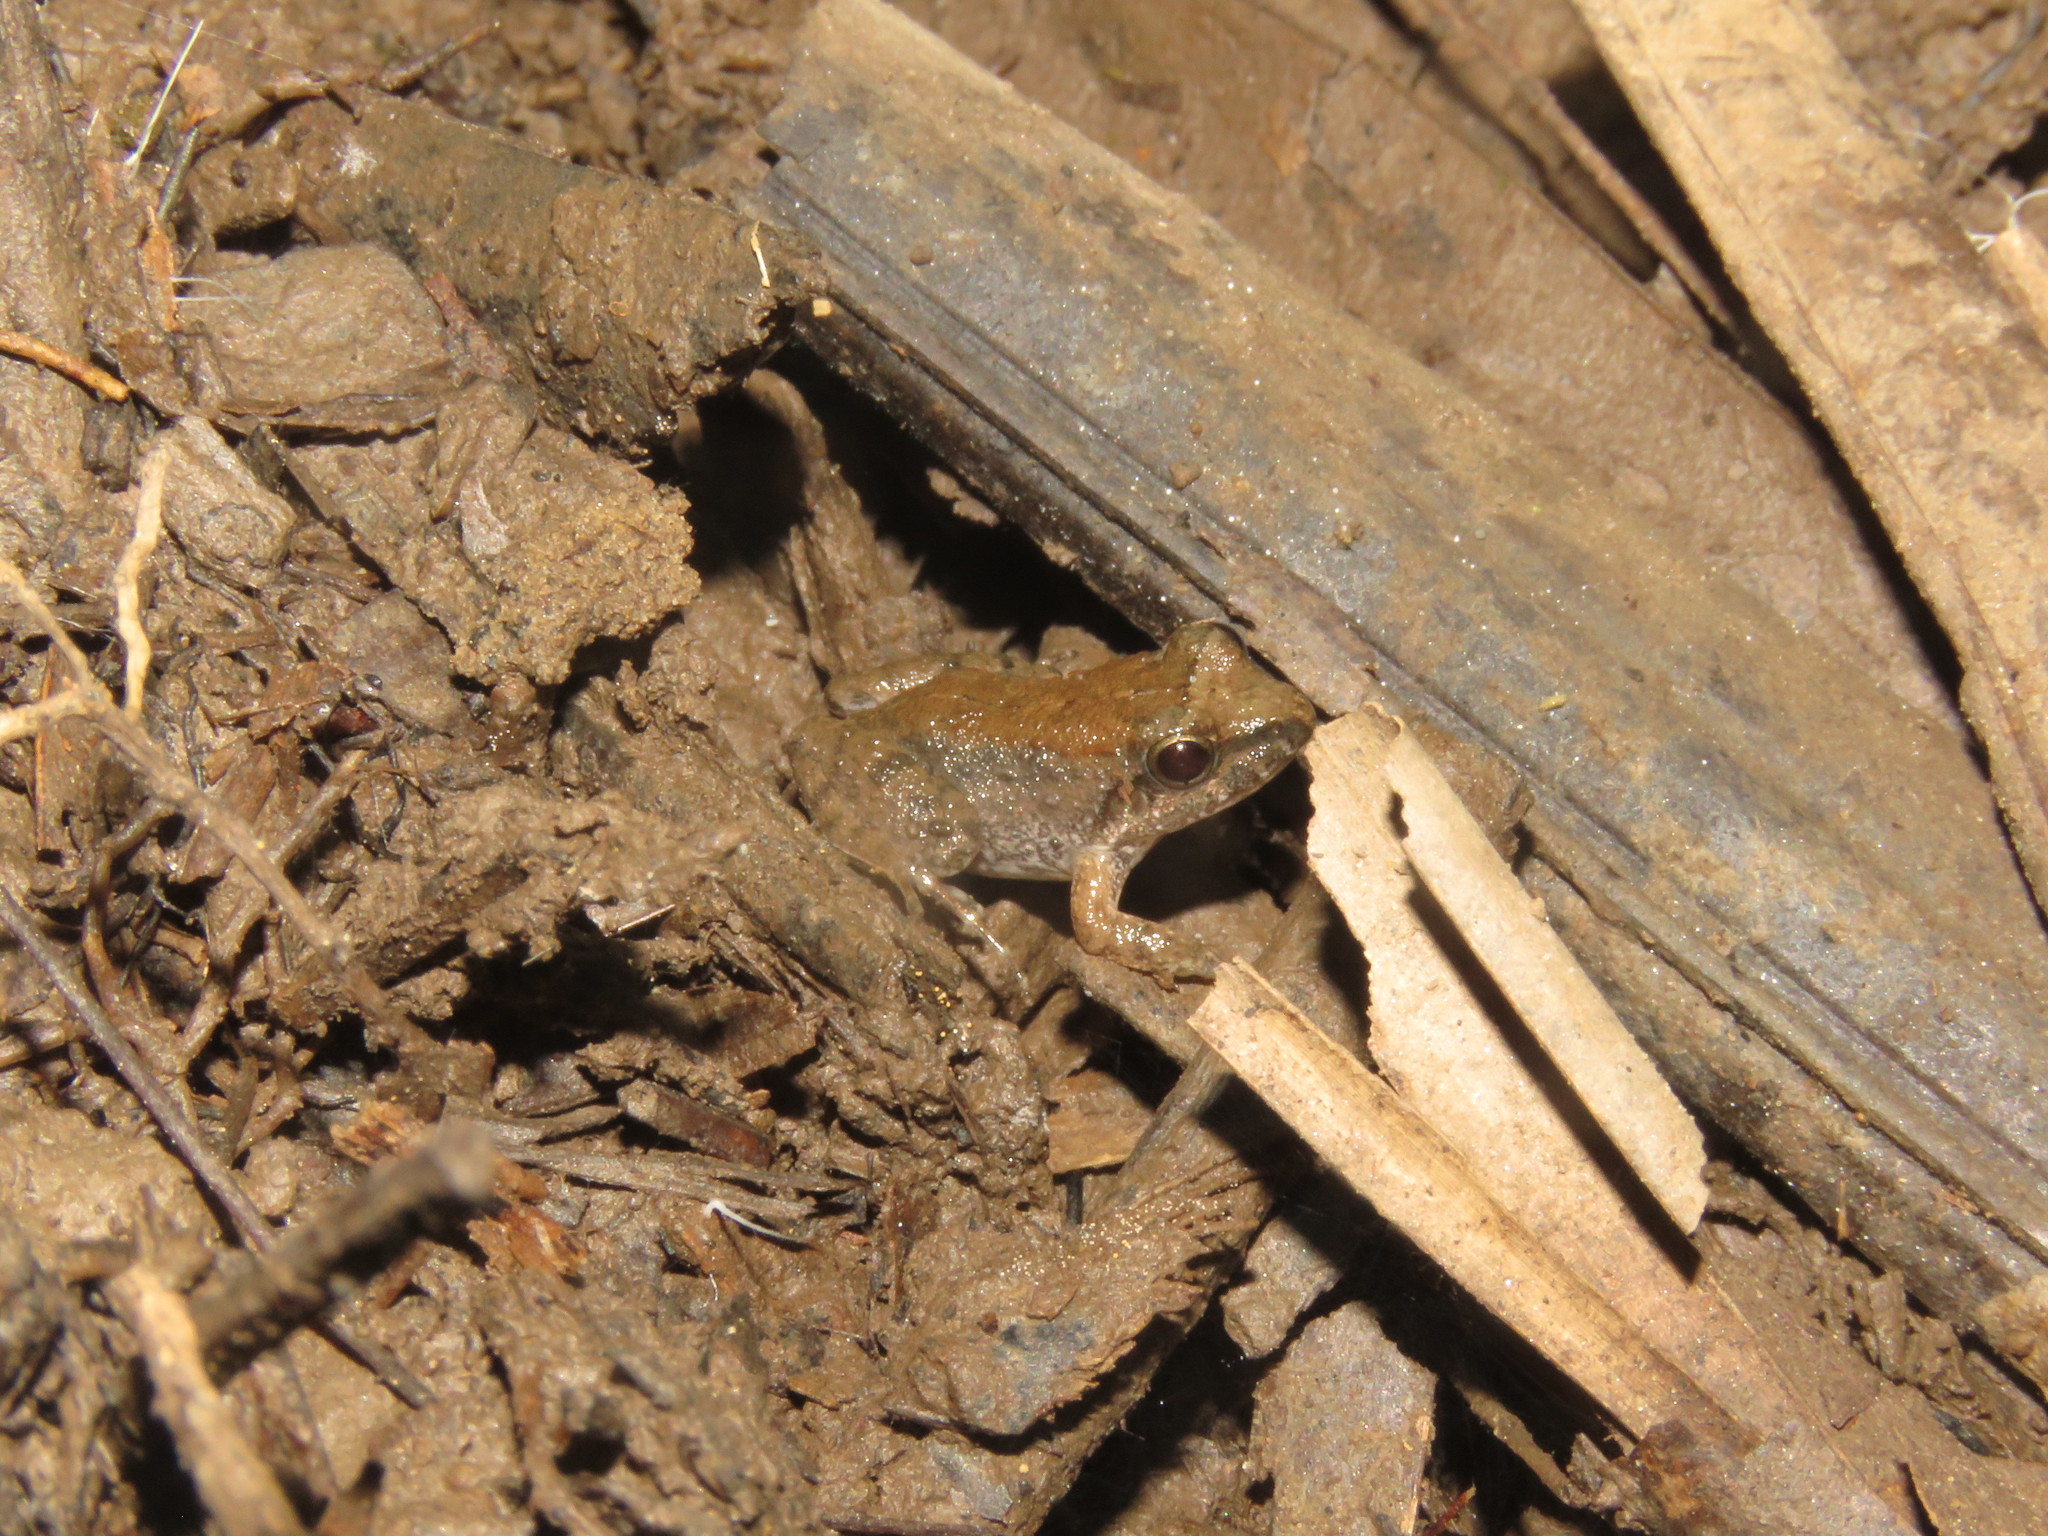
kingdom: Animalia
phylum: Chordata
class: Amphibia
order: Anura
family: Leptodactylidae
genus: Leptodactylus
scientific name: Leptodactylus petersii
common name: Peters' thin-toed frog
